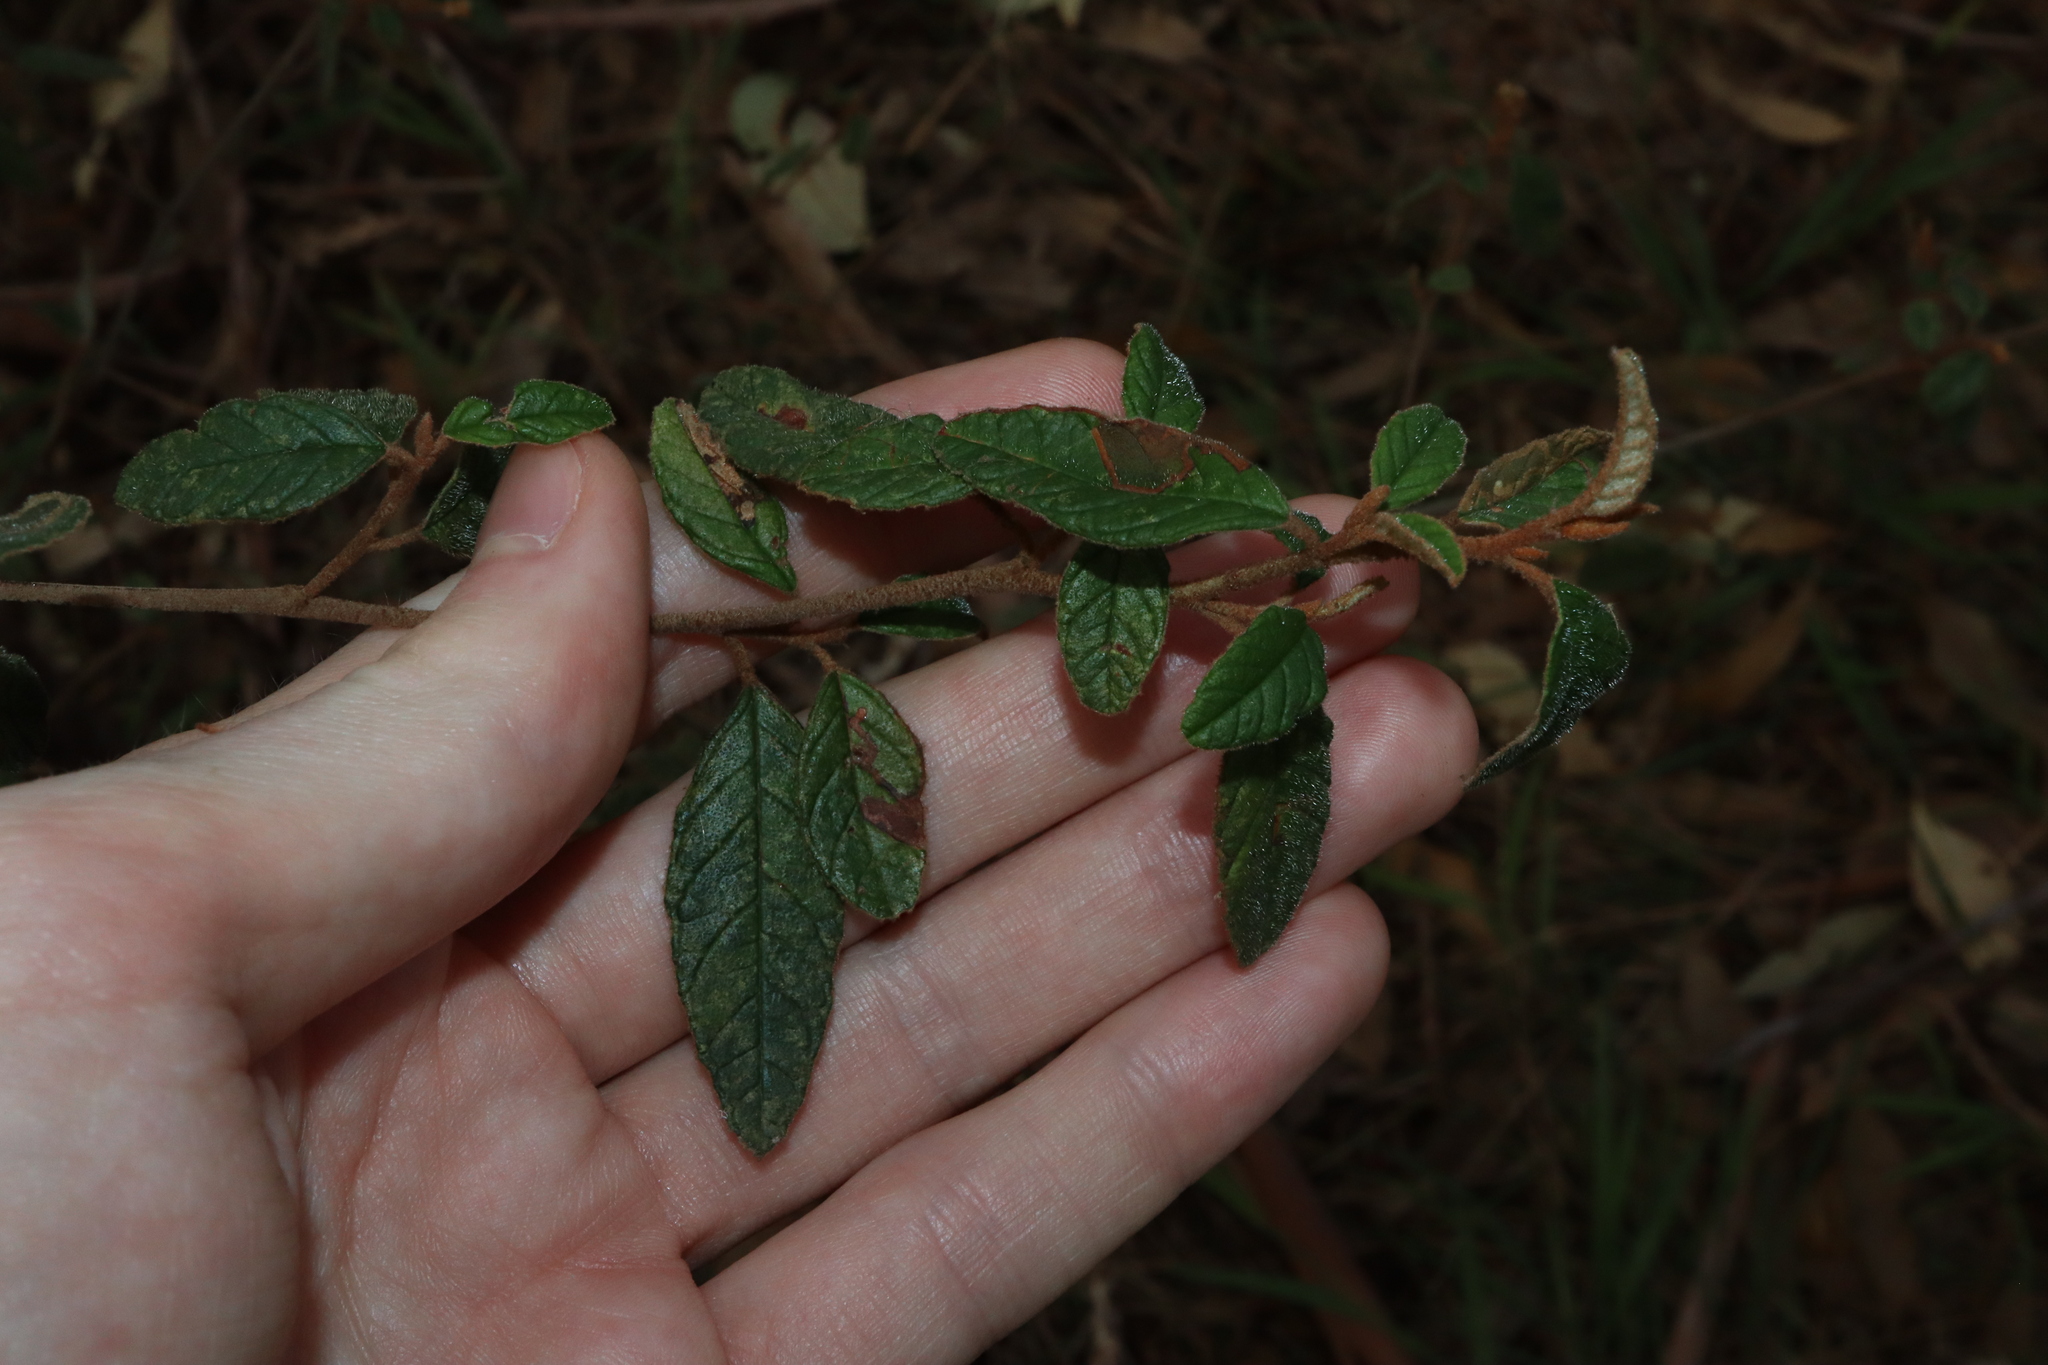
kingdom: Plantae
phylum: Tracheophyta
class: Magnoliopsida
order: Rosales
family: Rhamnaceae
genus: Pomaderris
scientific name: Pomaderris prunifolia
